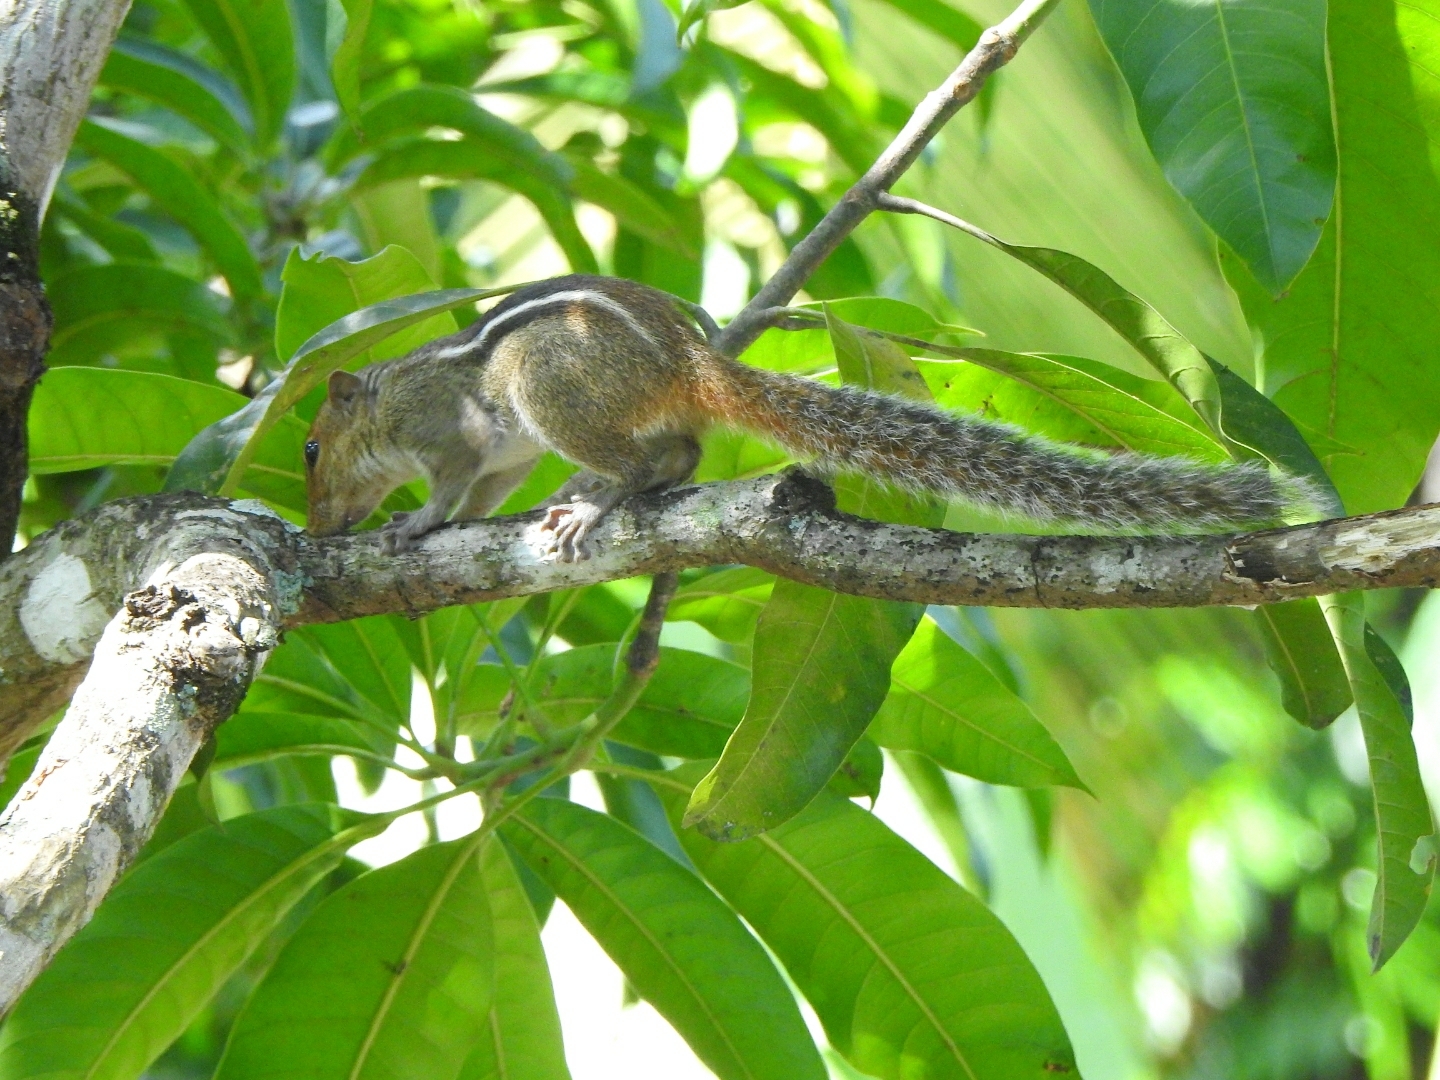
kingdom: Animalia
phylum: Chordata
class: Mammalia
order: Rodentia
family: Sciuridae
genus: Funambulus
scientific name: Funambulus tristriatus
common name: Jungle palm squirrel
